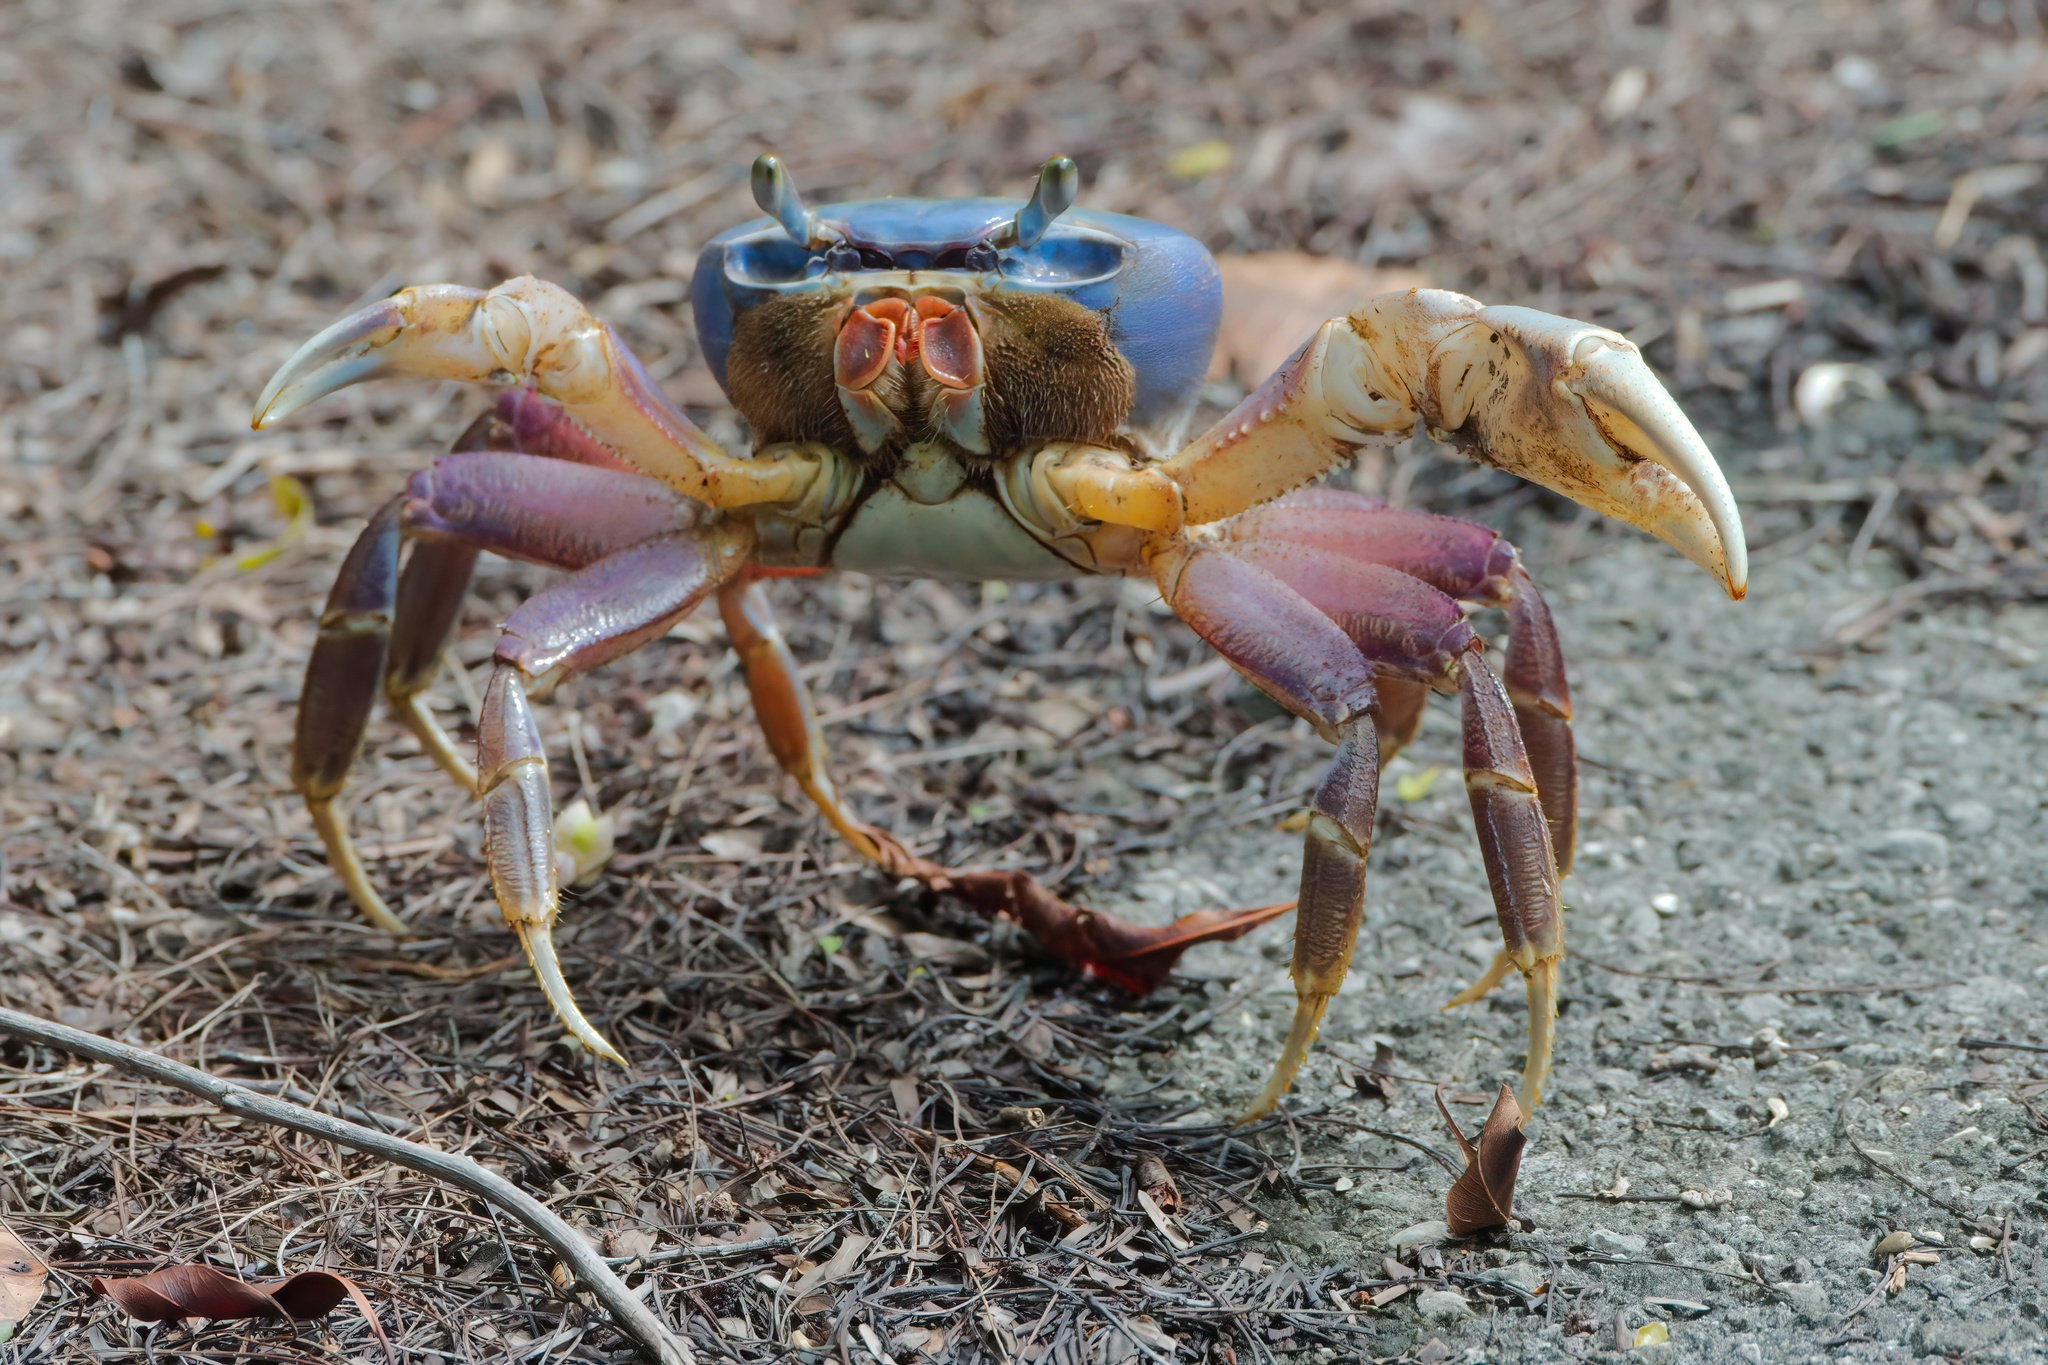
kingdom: Animalia
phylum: Arthropoda
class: Malacostraca
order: Decapoda
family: Gecarcinidae
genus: Cardisoma
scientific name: Cardisoma guanhumi
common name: Great land crab
